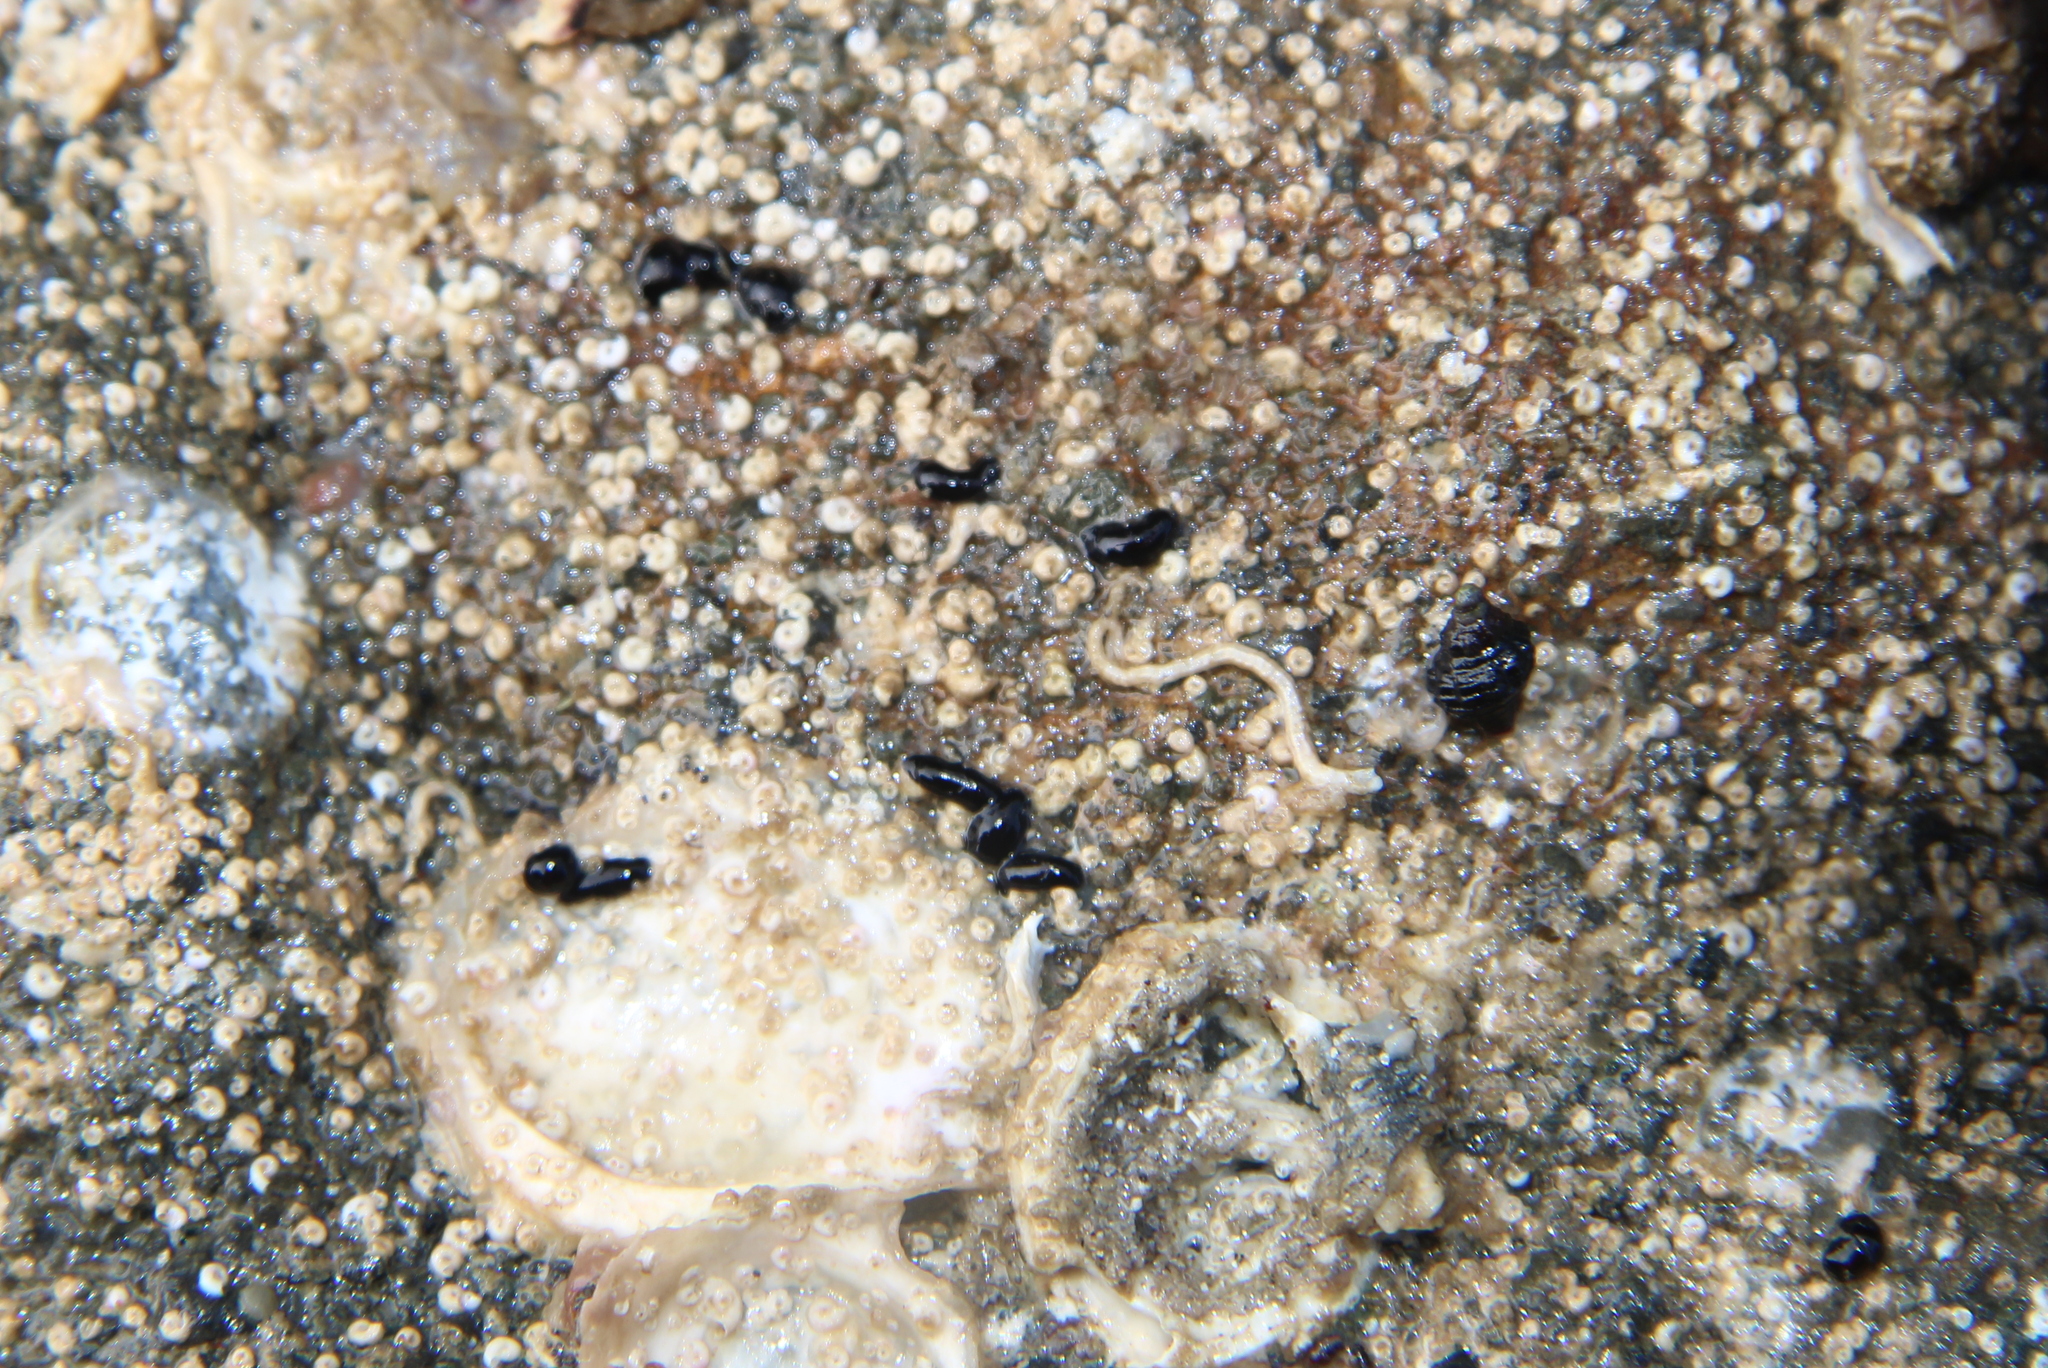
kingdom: Animalia
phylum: Mollusca
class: Gastropoda
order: Runcinida
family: Runcinidae
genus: Runcina
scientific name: Runcina katipoides
